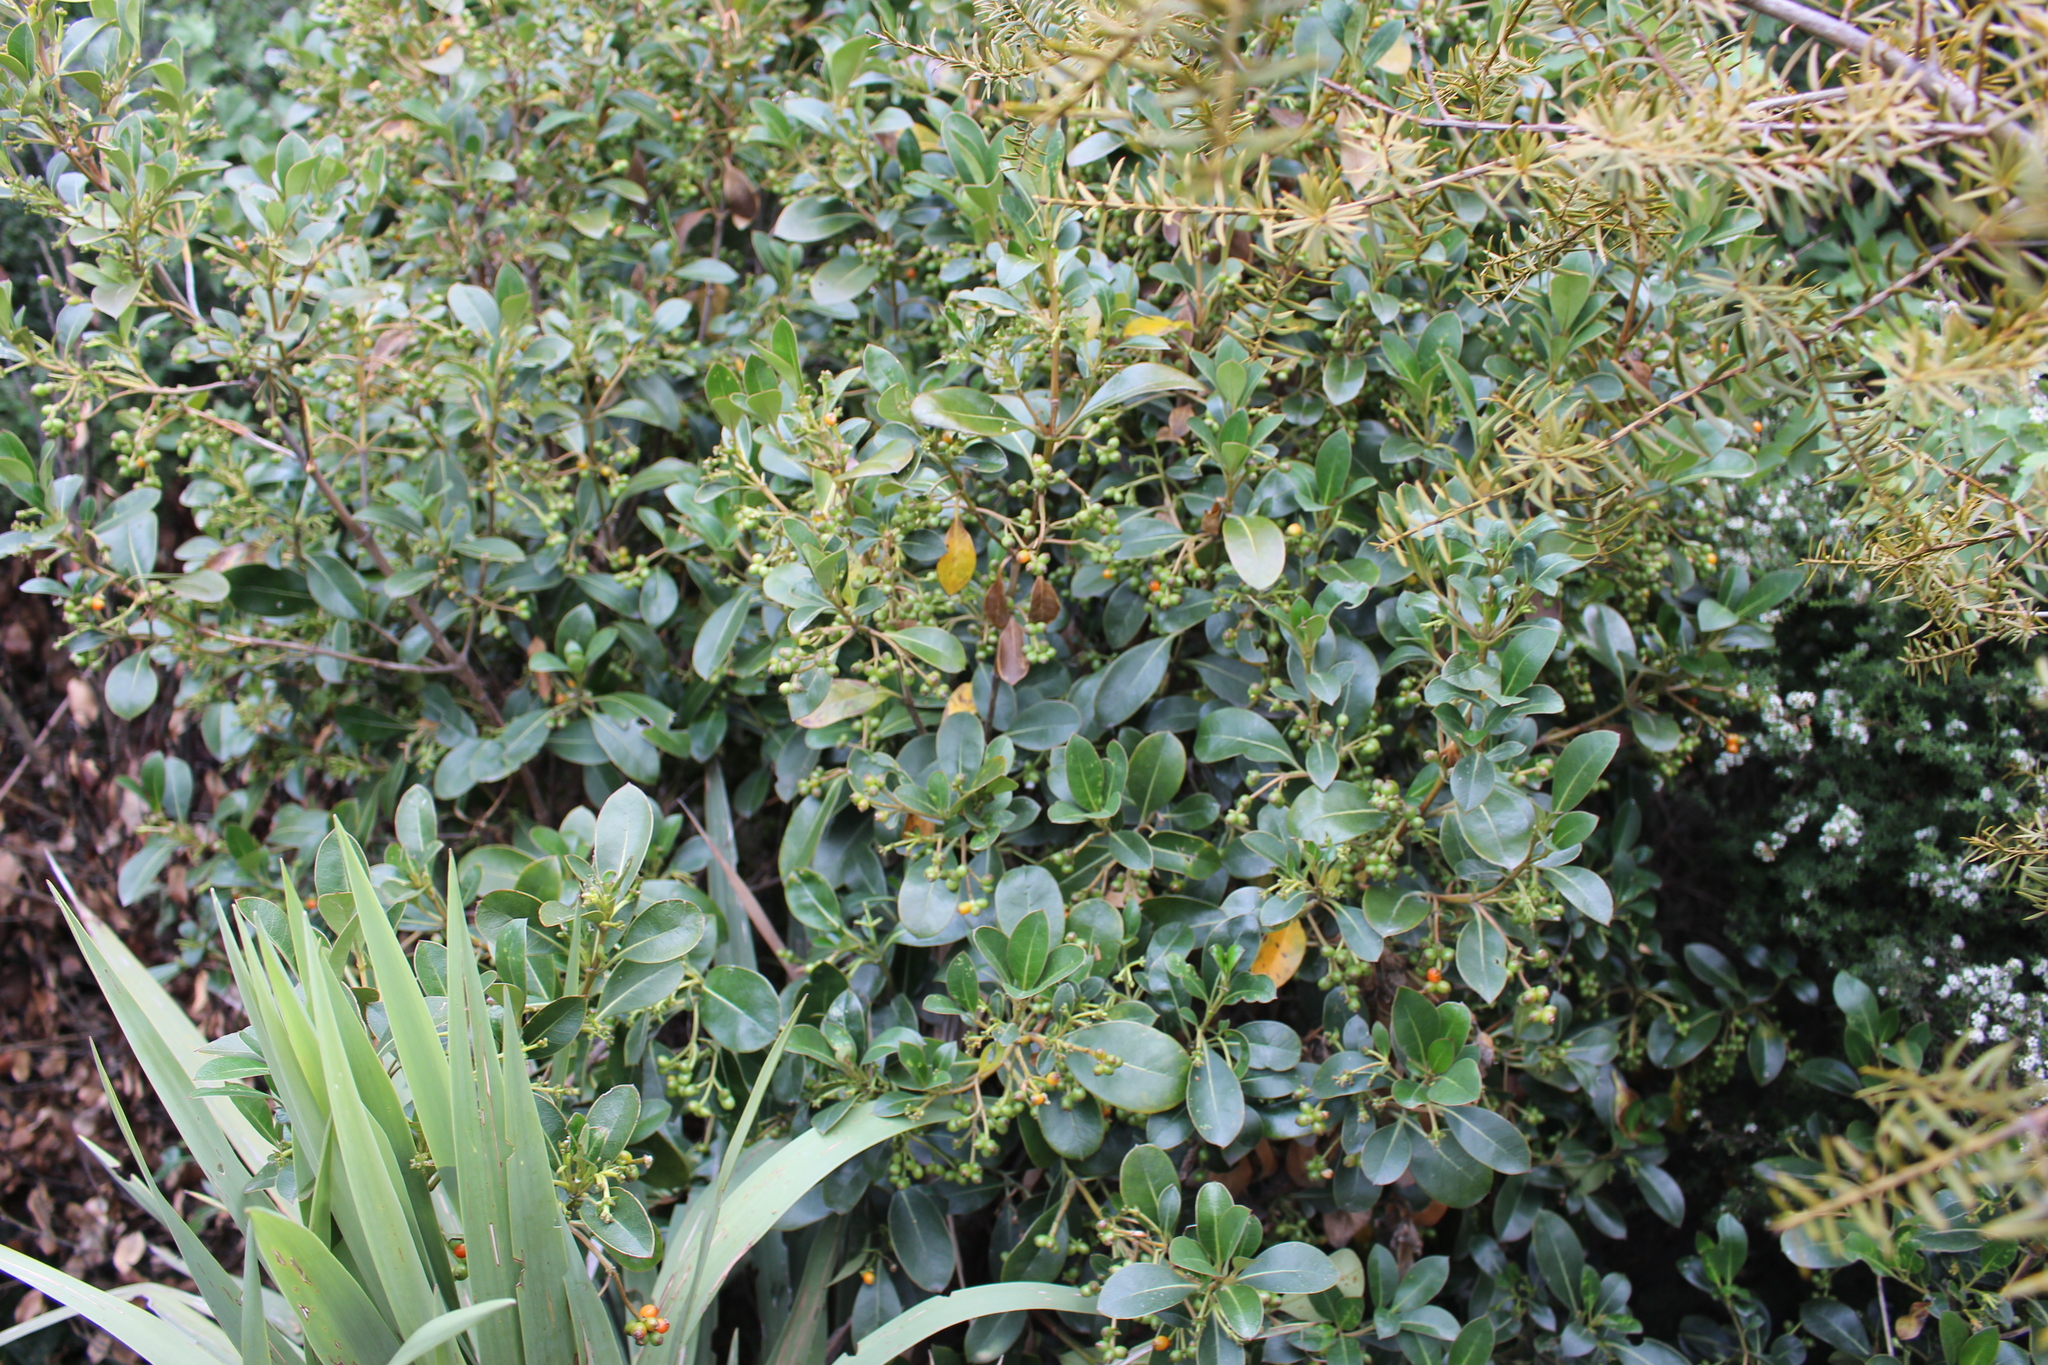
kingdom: Plantae
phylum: Tracheophyta
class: Magnoliopsida
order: Gentianales
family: Rubiaceae
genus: Coprosma
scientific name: Coprosma lucida
